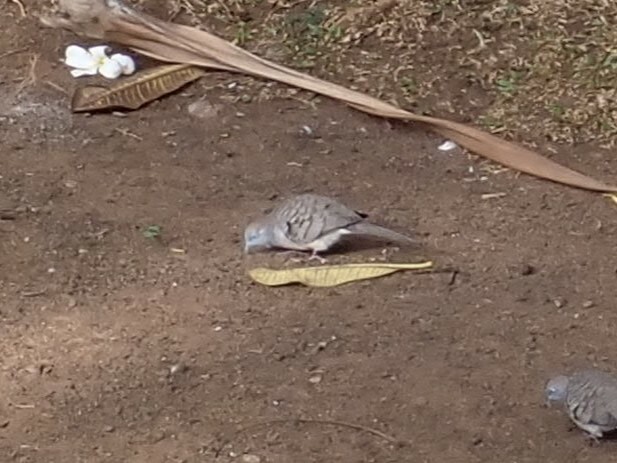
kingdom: Animalia
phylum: Chordata
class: Aves
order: Columbiformes
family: Columbidae
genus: Geopelia
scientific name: Geopelia striata
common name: Zebra dove
